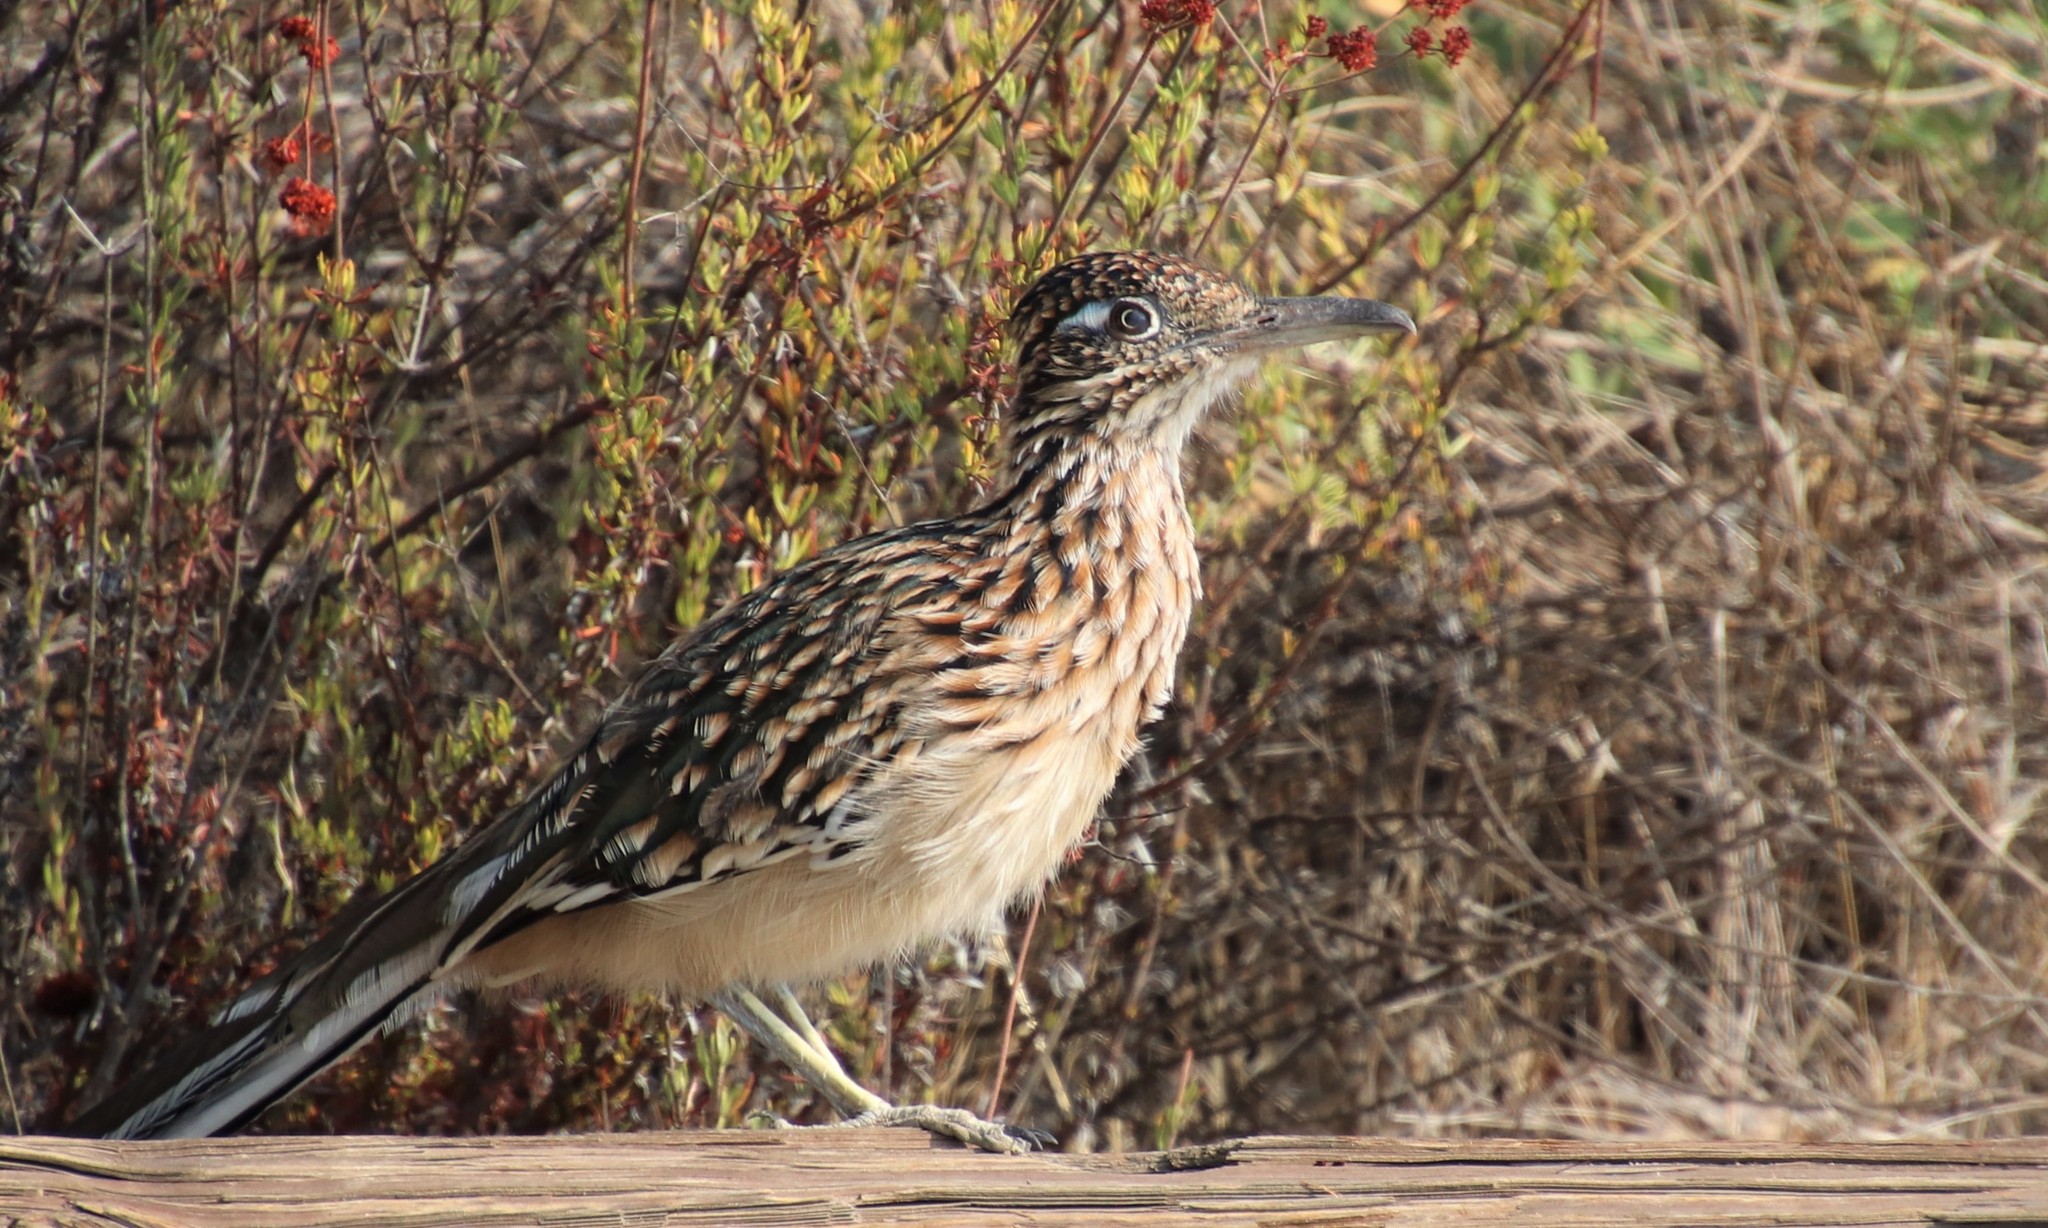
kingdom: Animalia
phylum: Chordata
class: Aves
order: Cuculiformes
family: Cuculidae
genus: Geococcyx
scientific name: Geococcyx californianus
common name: Greater roadrunner
